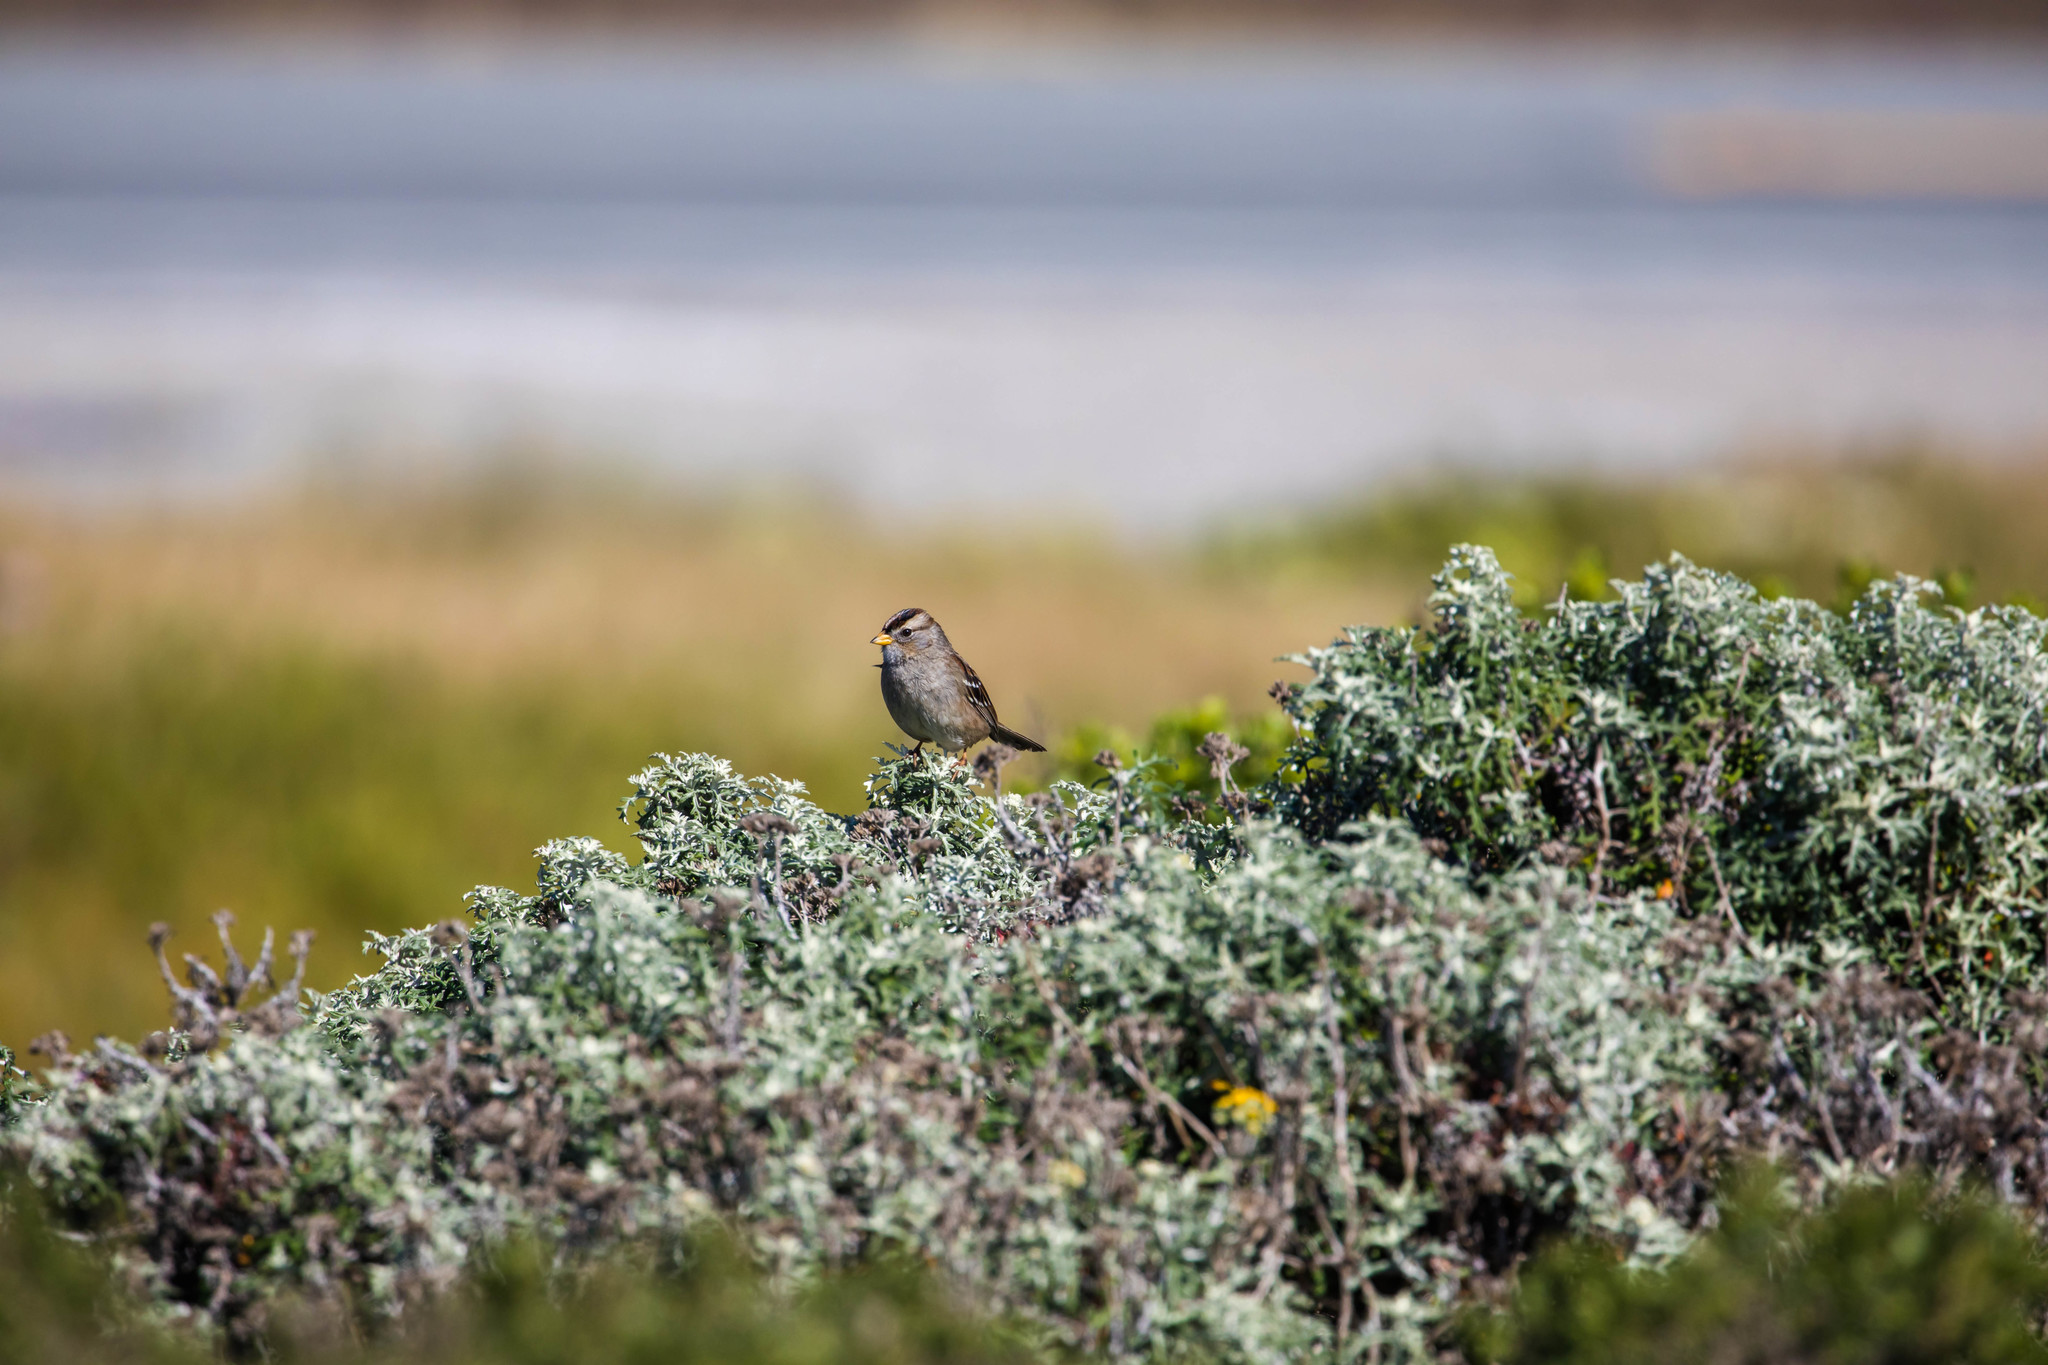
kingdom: Animalia
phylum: Chordata
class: Aves
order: Passeriformes
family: Passerellidae
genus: Zonotrichia
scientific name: Zonotrichia leucophrys
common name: White-crowned sparrow
